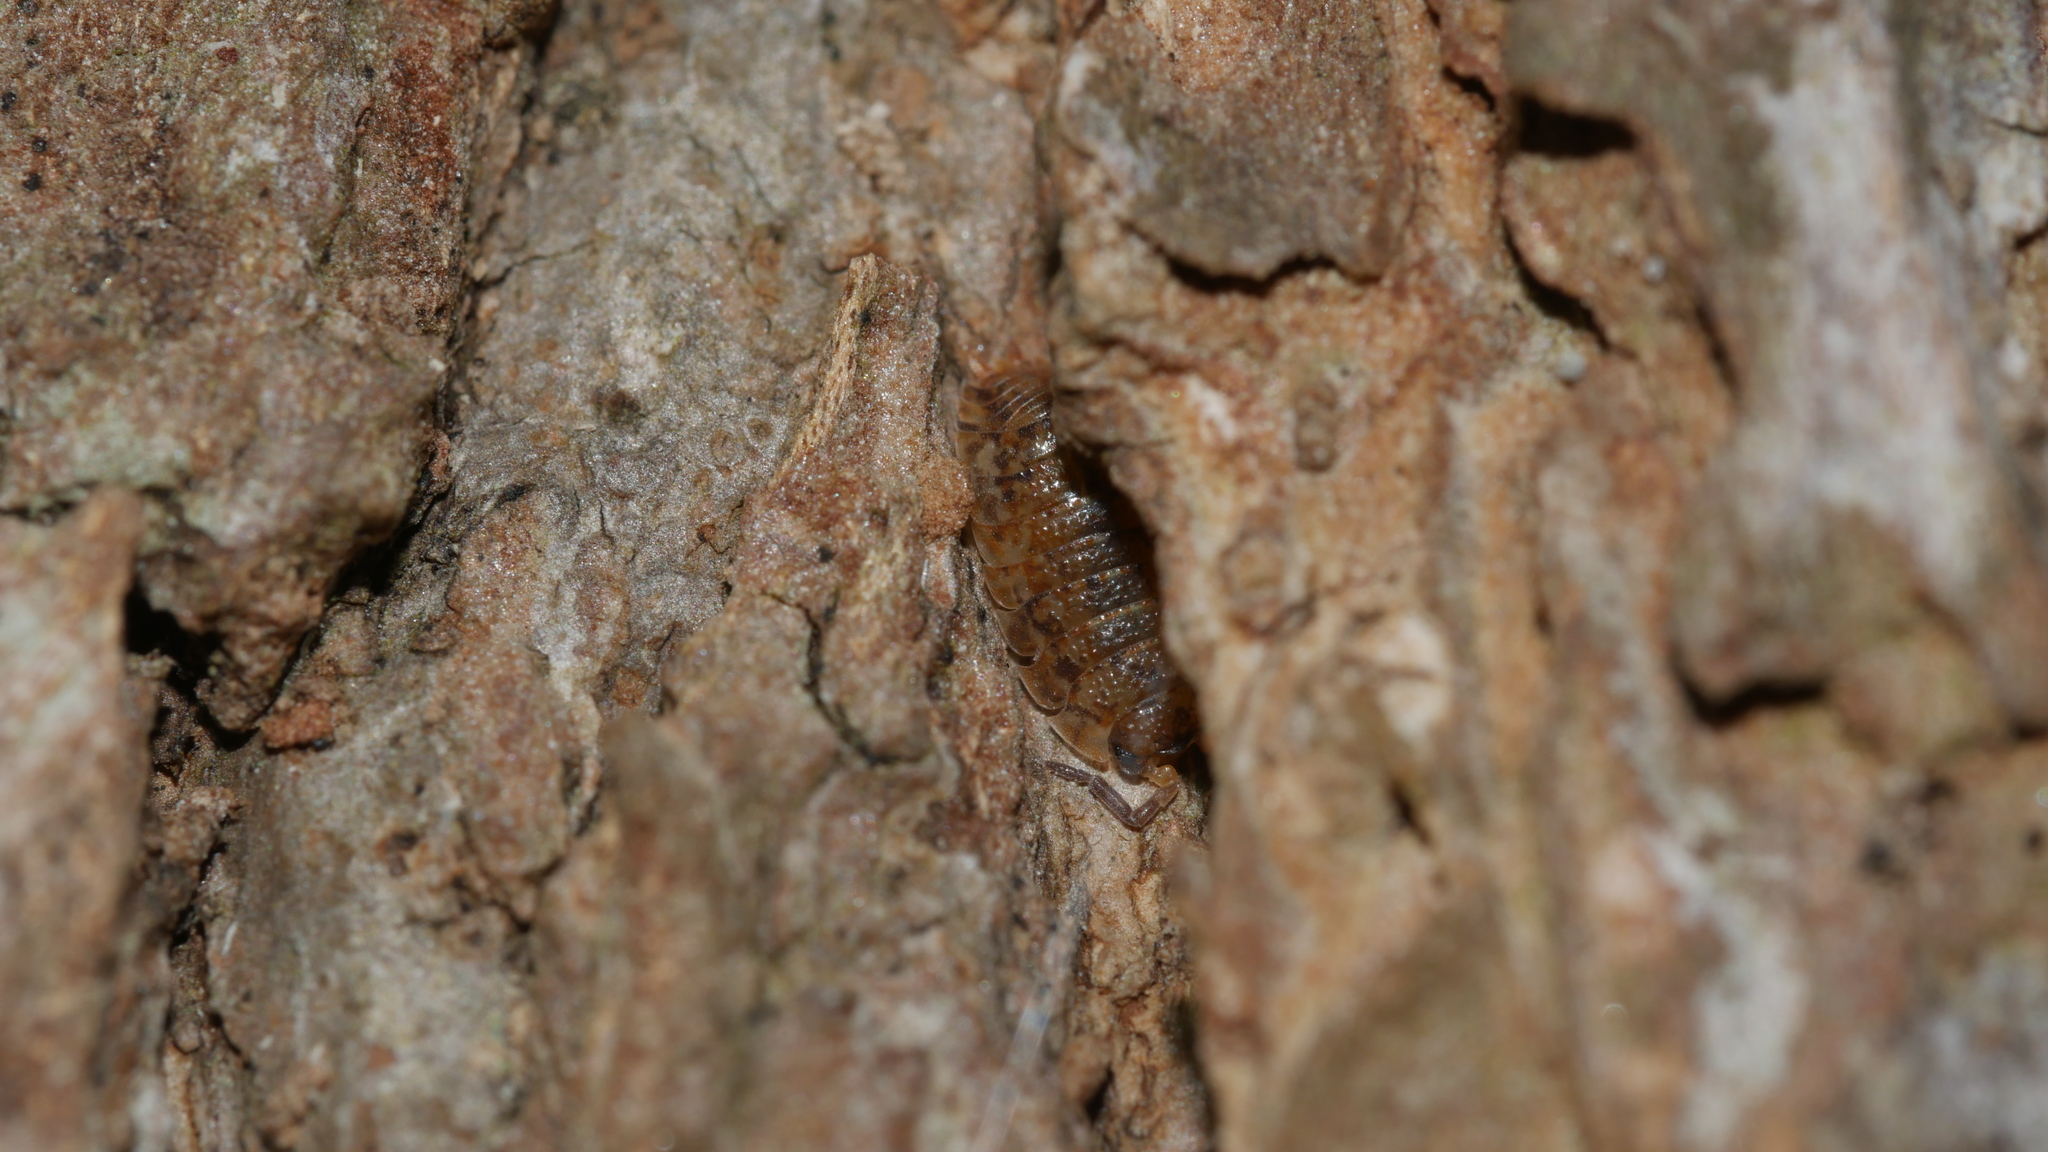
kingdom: Animalia
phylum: Arthropoda
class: Malacostraca
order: Isopoda
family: Porcellionidae
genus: Porcellio
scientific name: Porcellio scaber
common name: Common rough woodlouse
